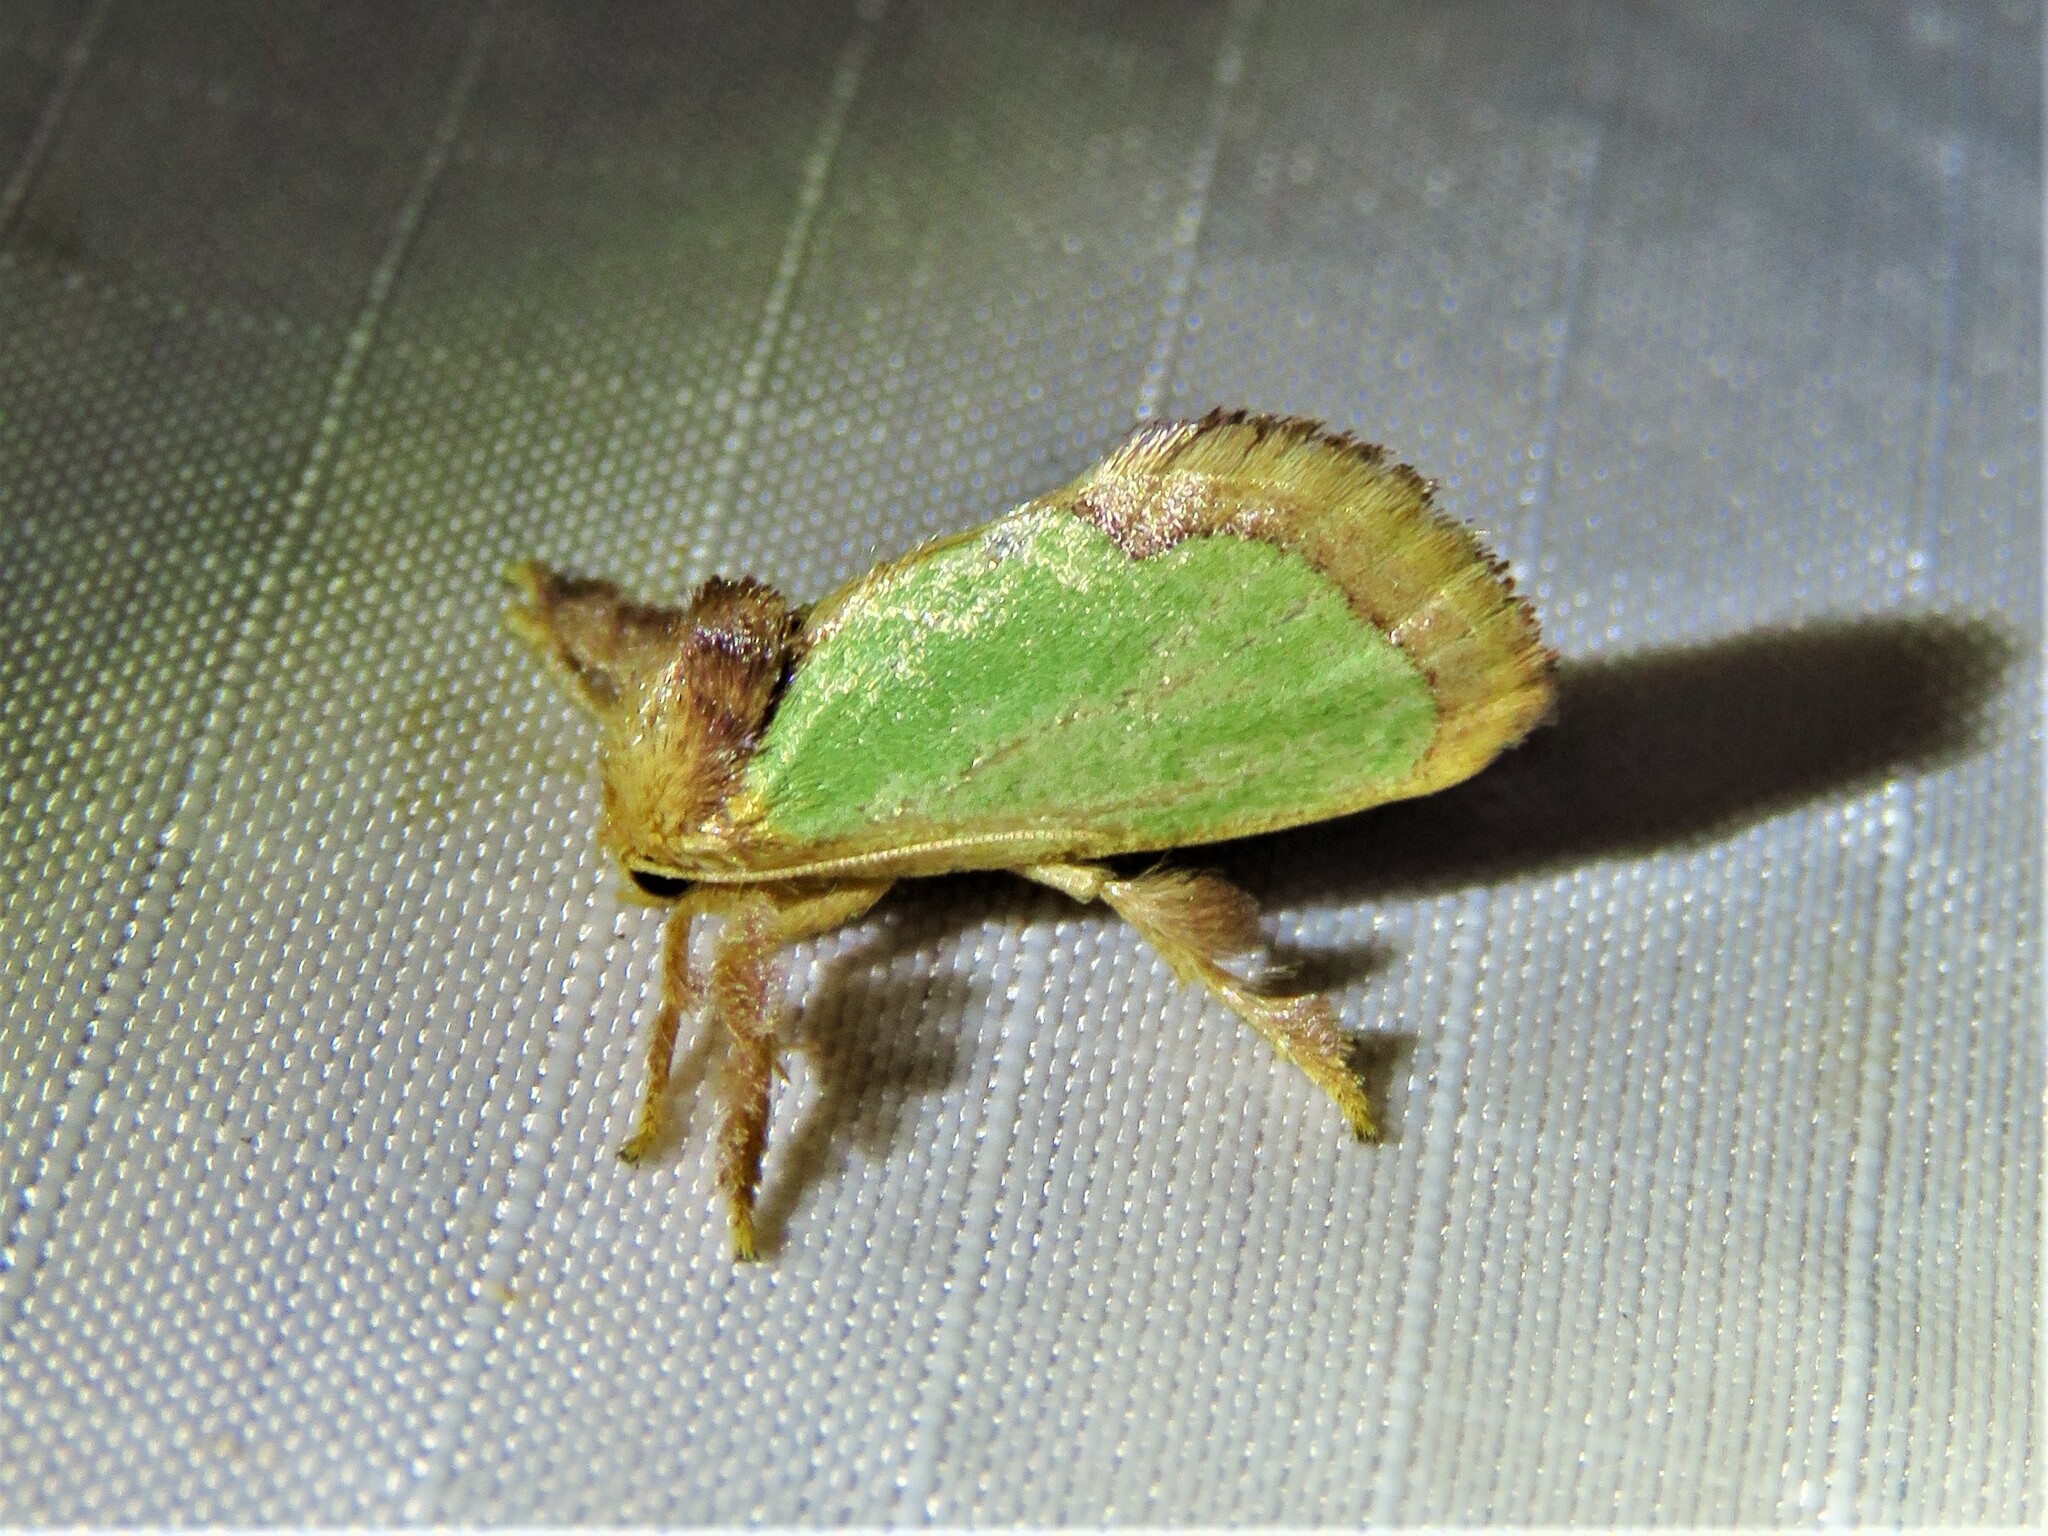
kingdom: Animalia
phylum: Arthropoda
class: Insecta
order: Lepidoptera
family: Limacodidae
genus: Euclea
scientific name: Euclea incisa
